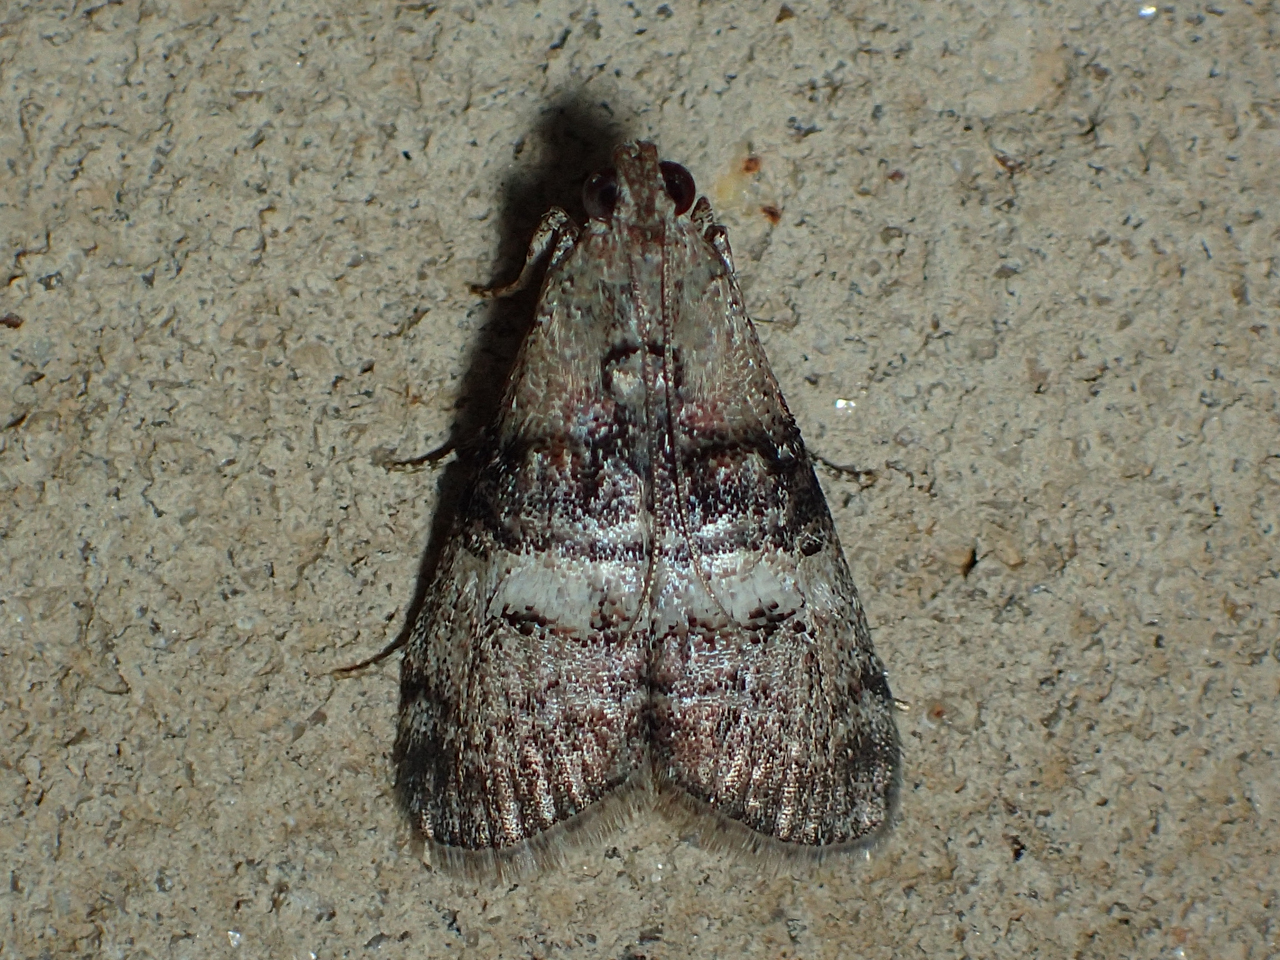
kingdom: Animalia
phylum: Arthropoda
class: Insecta
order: Lepidoptera
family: Pyralidae
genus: Pococera
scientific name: Pococera asperatella
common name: Maple webworm moth
